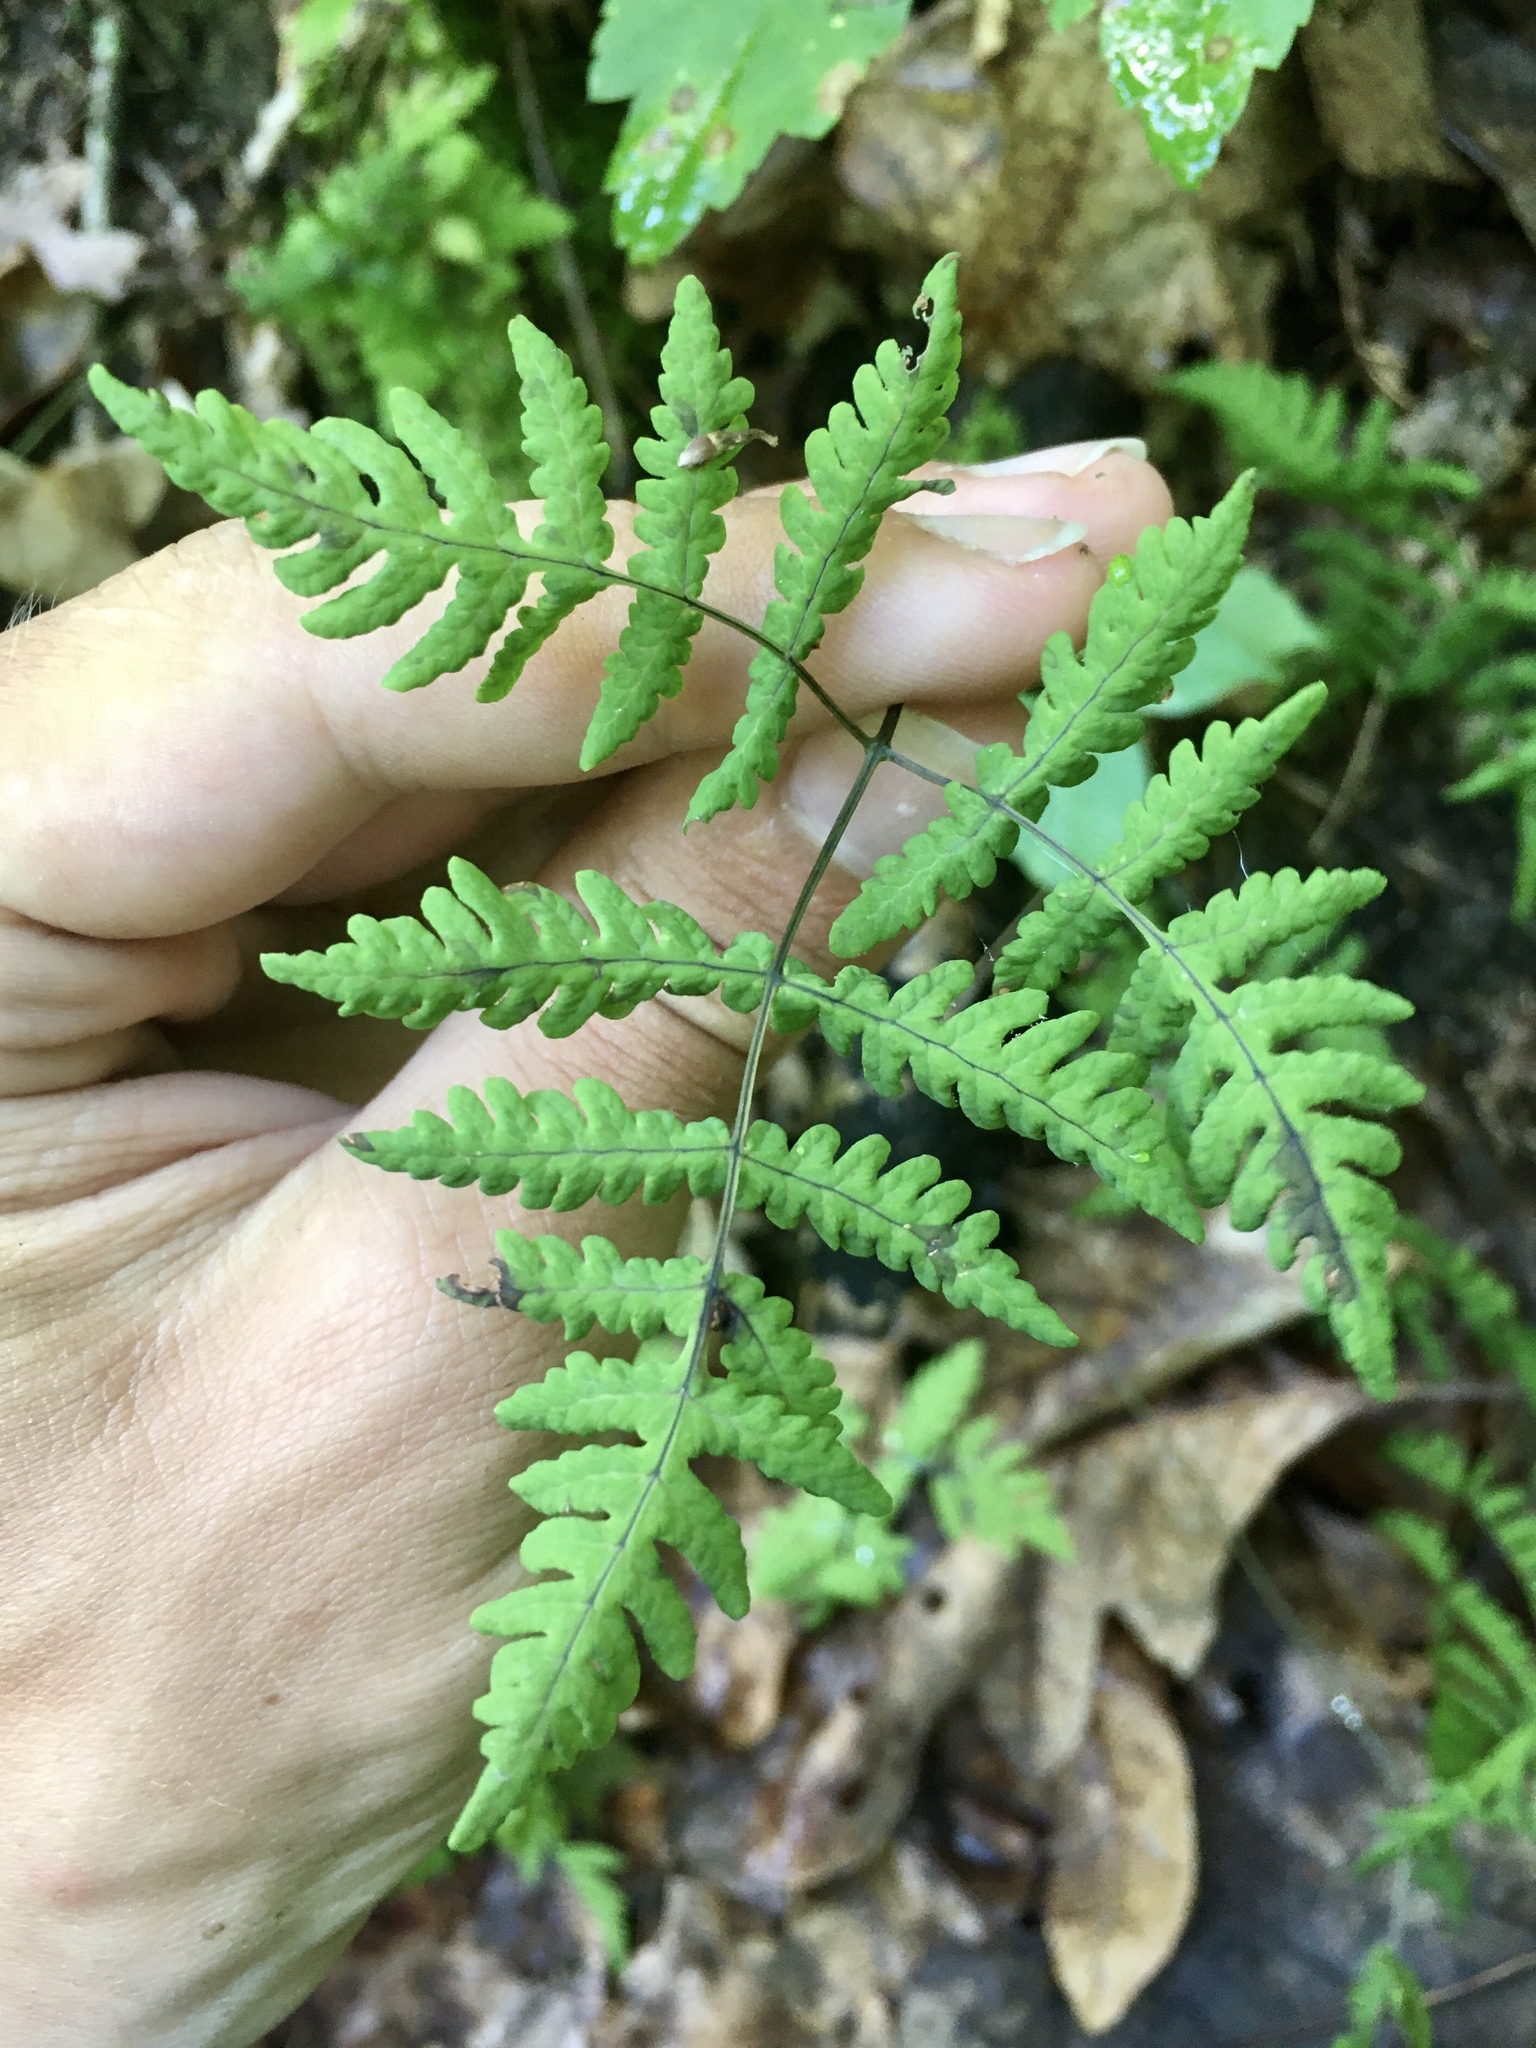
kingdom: Plantae
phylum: Tracheophyta
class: Polypodiopsida
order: Polypodiales
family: Cystopteridaceae
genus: Gymnocarpium
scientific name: Gymnocarpium dryopteris
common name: Oak fern
